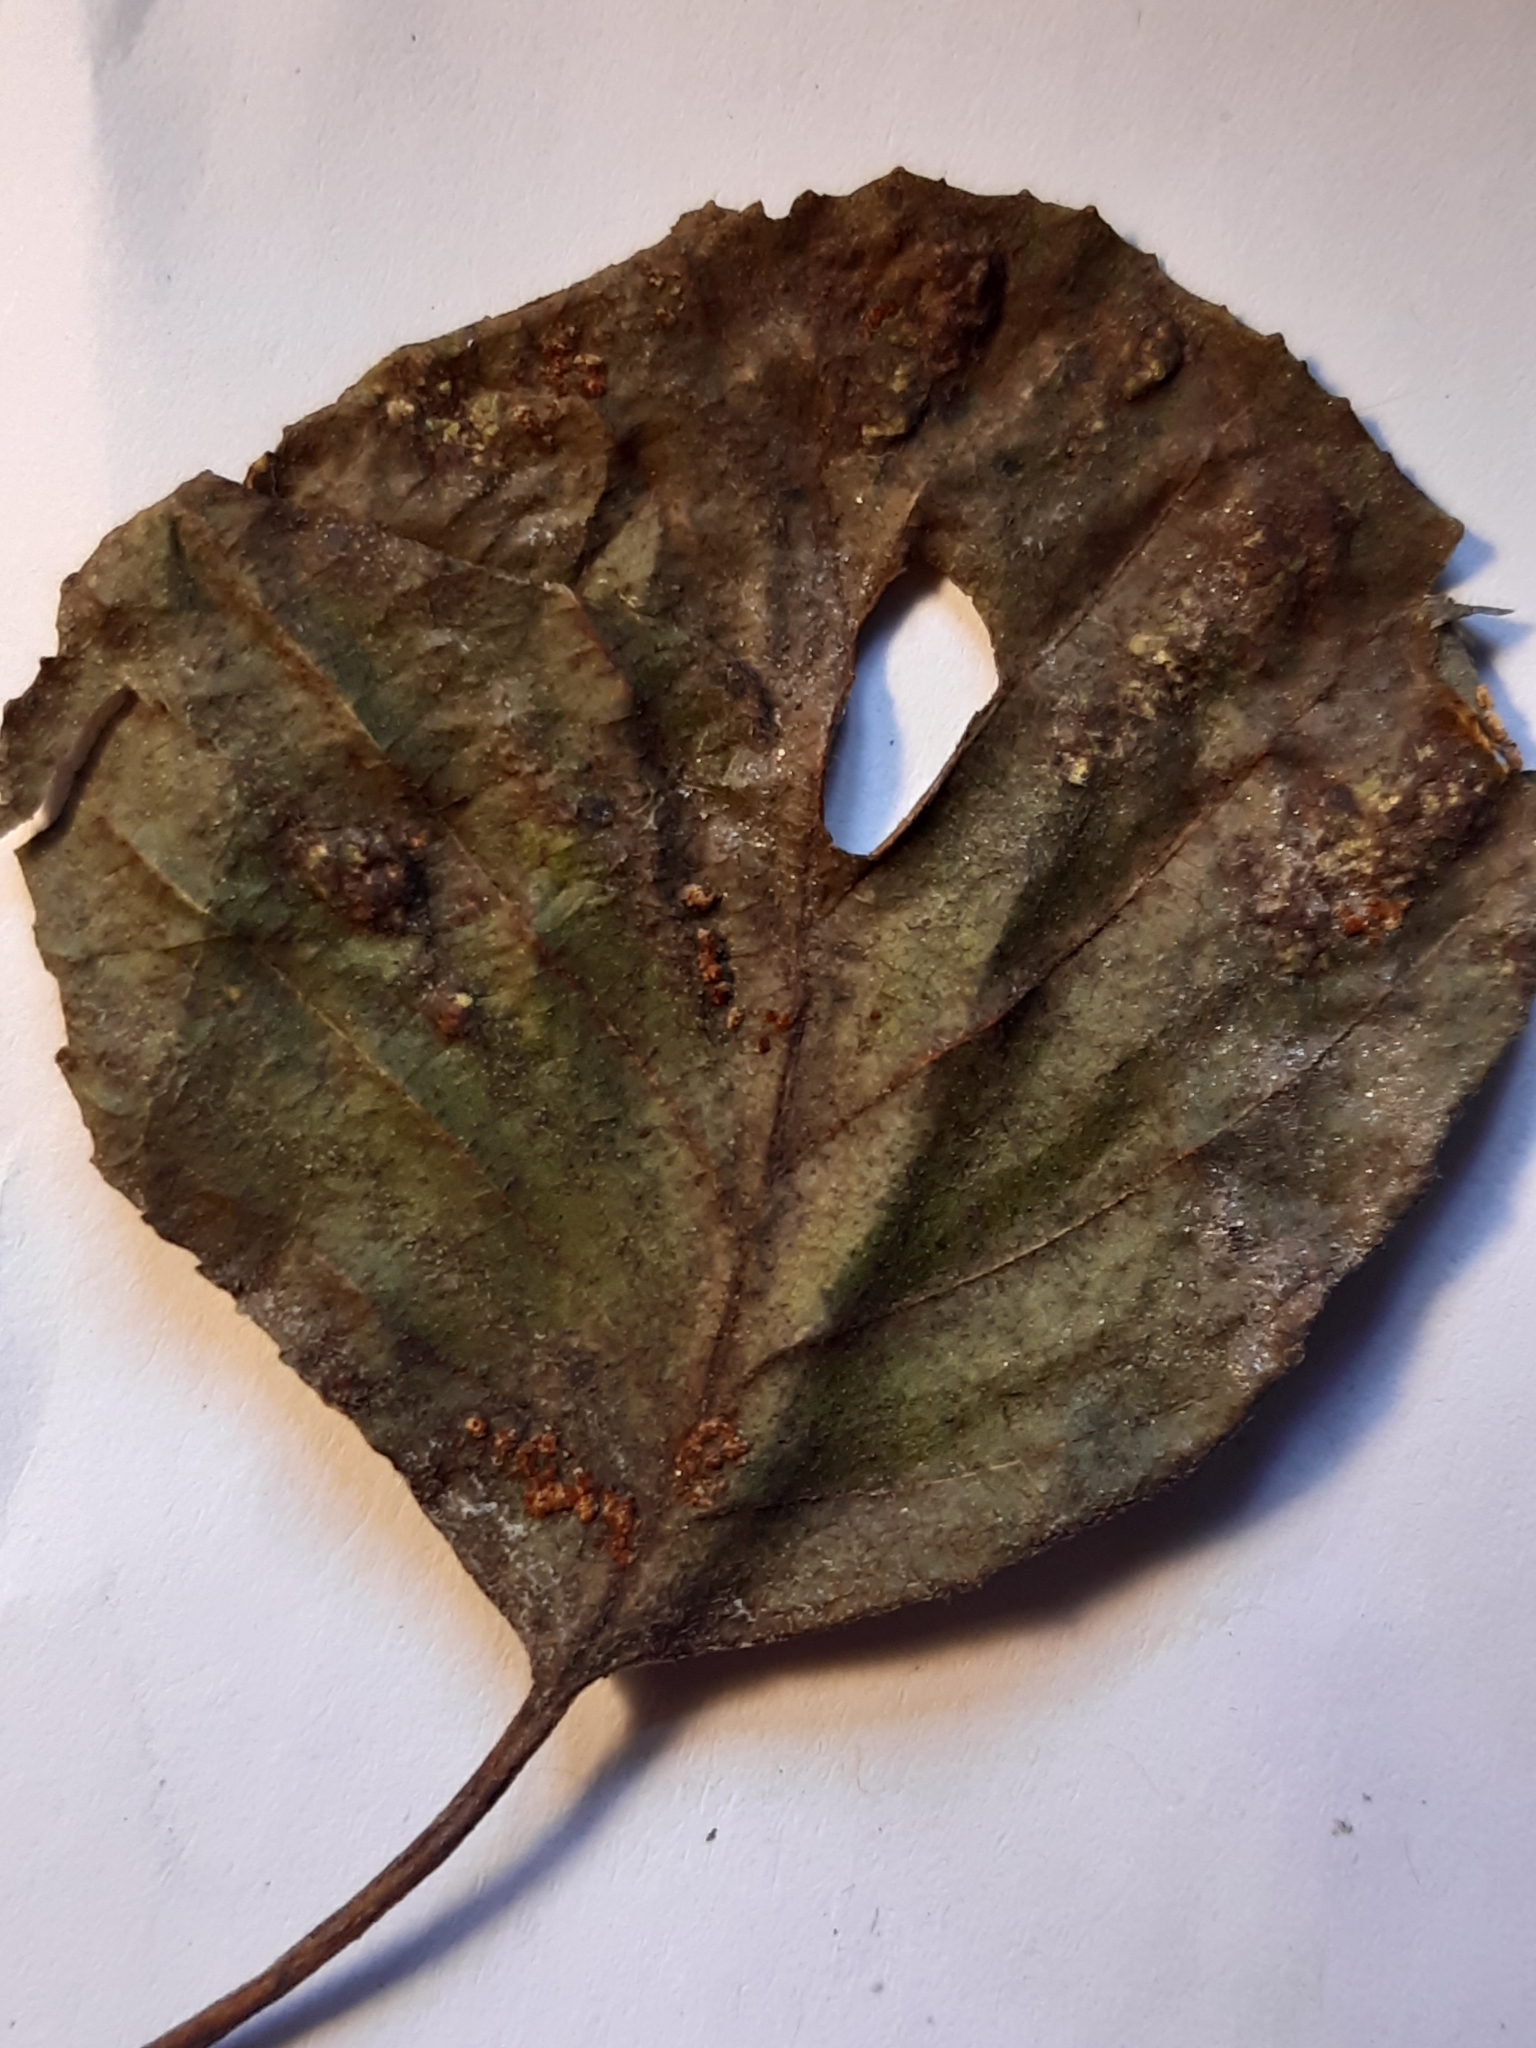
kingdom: Animalia
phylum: Arthropoda
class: Arachnida
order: Trombidiformes
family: Eriophyidae
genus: Acalitus
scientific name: Acalitus brevitarsus
